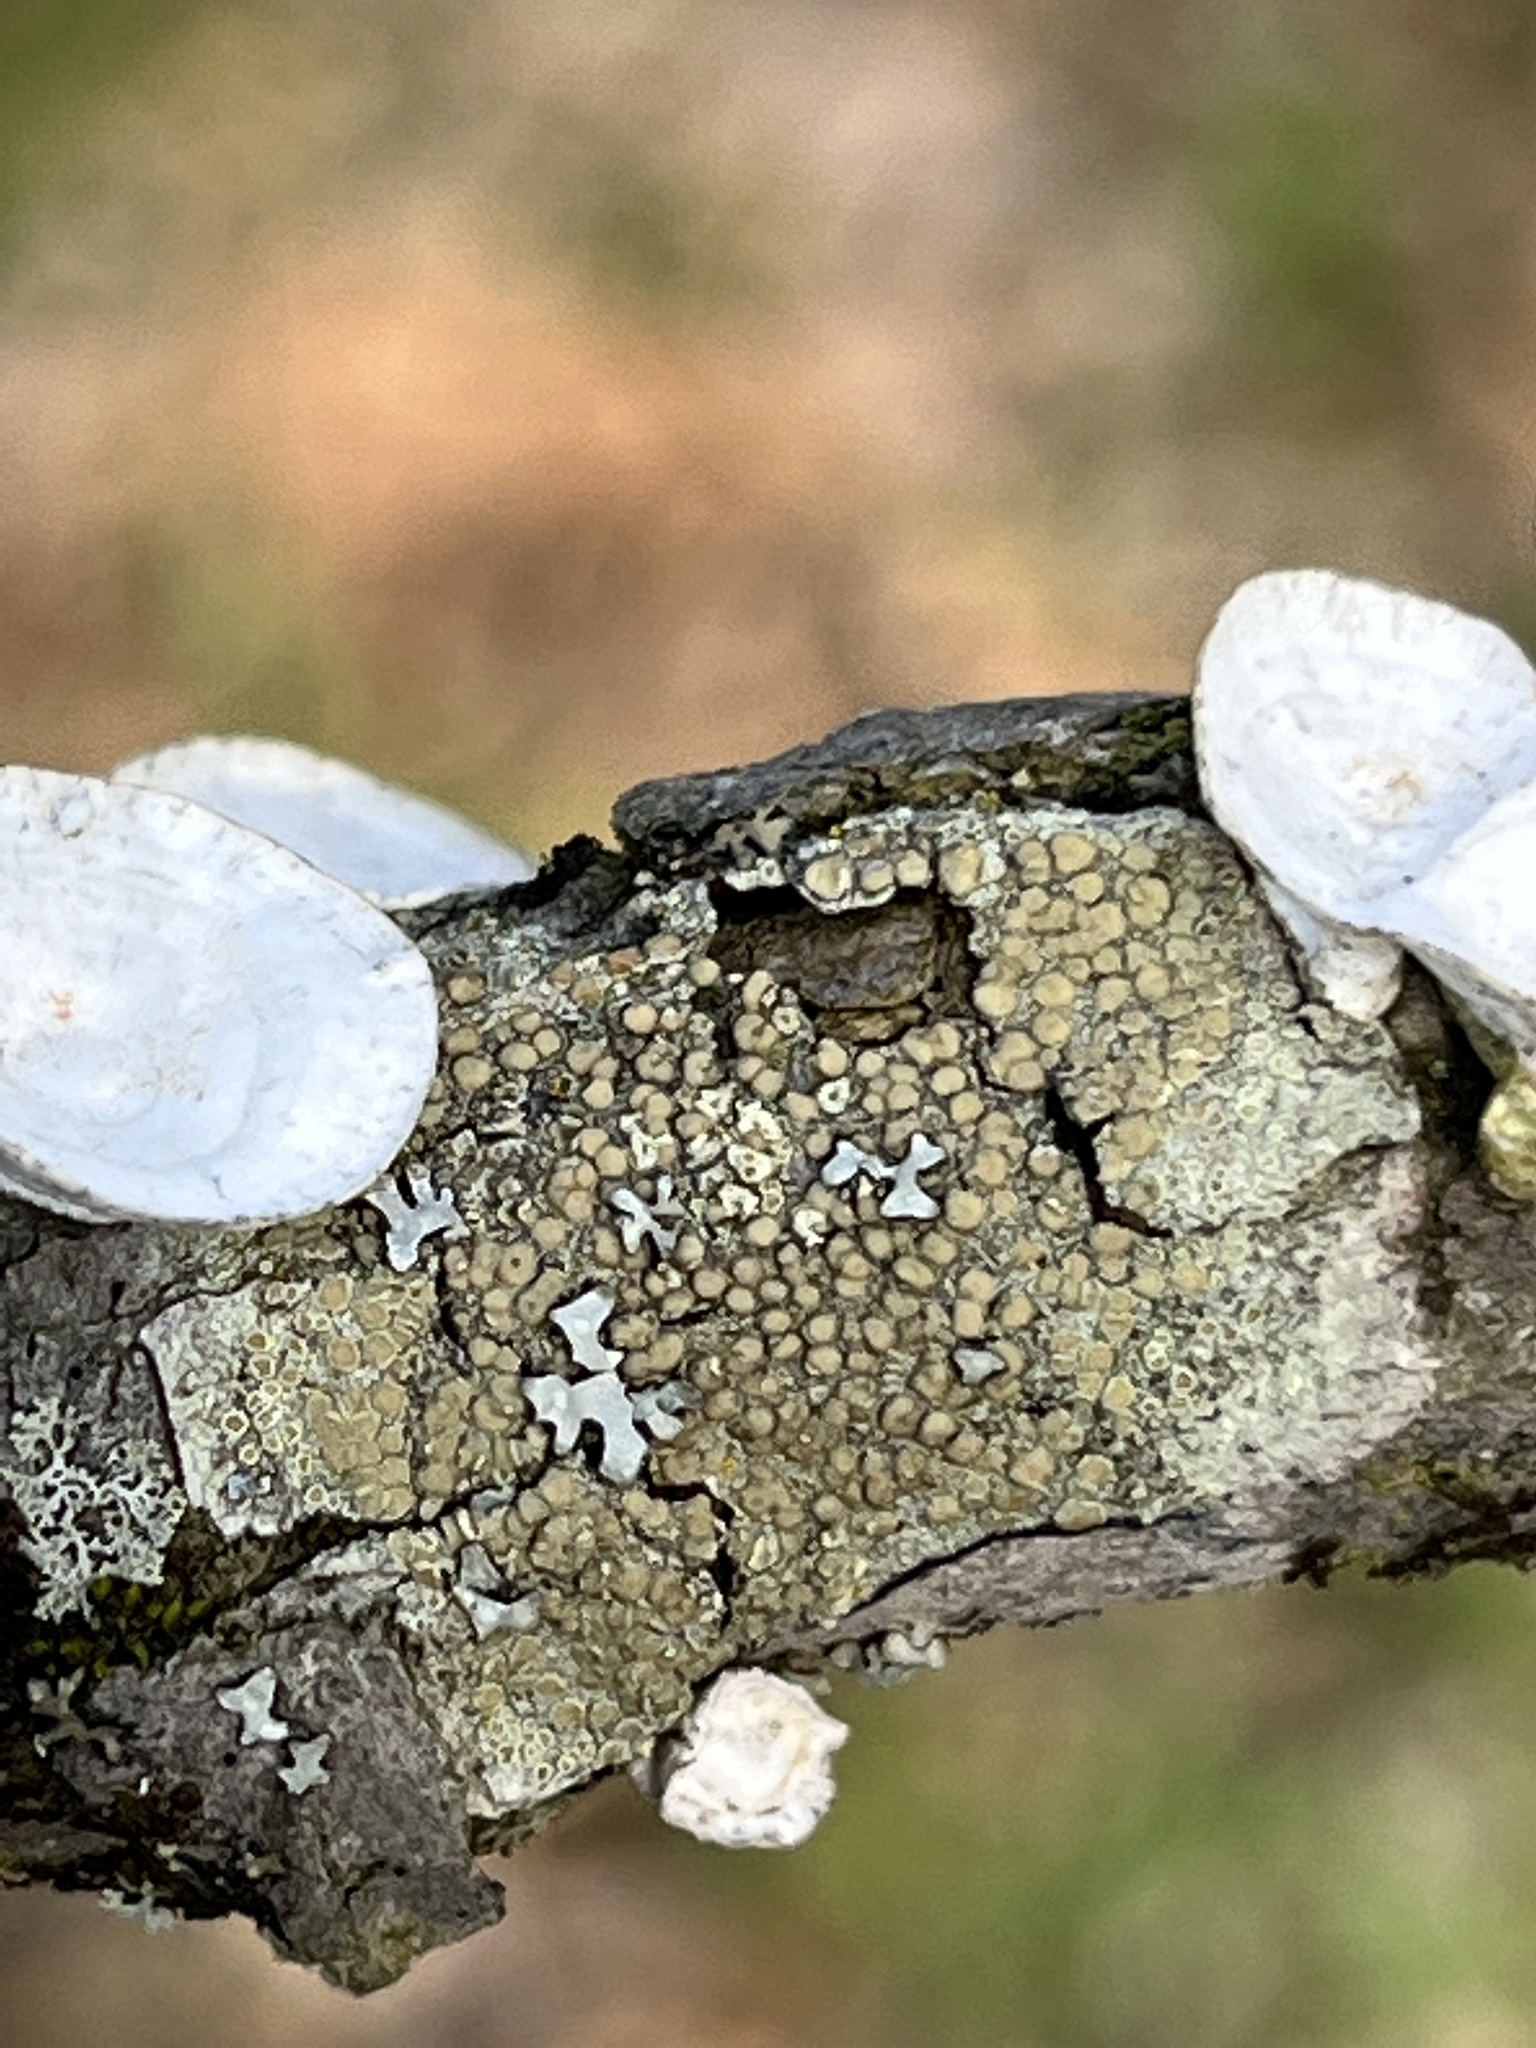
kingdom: Fungi
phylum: Basidiomycota
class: Agaricomycetes
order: Polyporales
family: Polyporaceae
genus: Poronidulus
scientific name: Poronidulus conchifer
